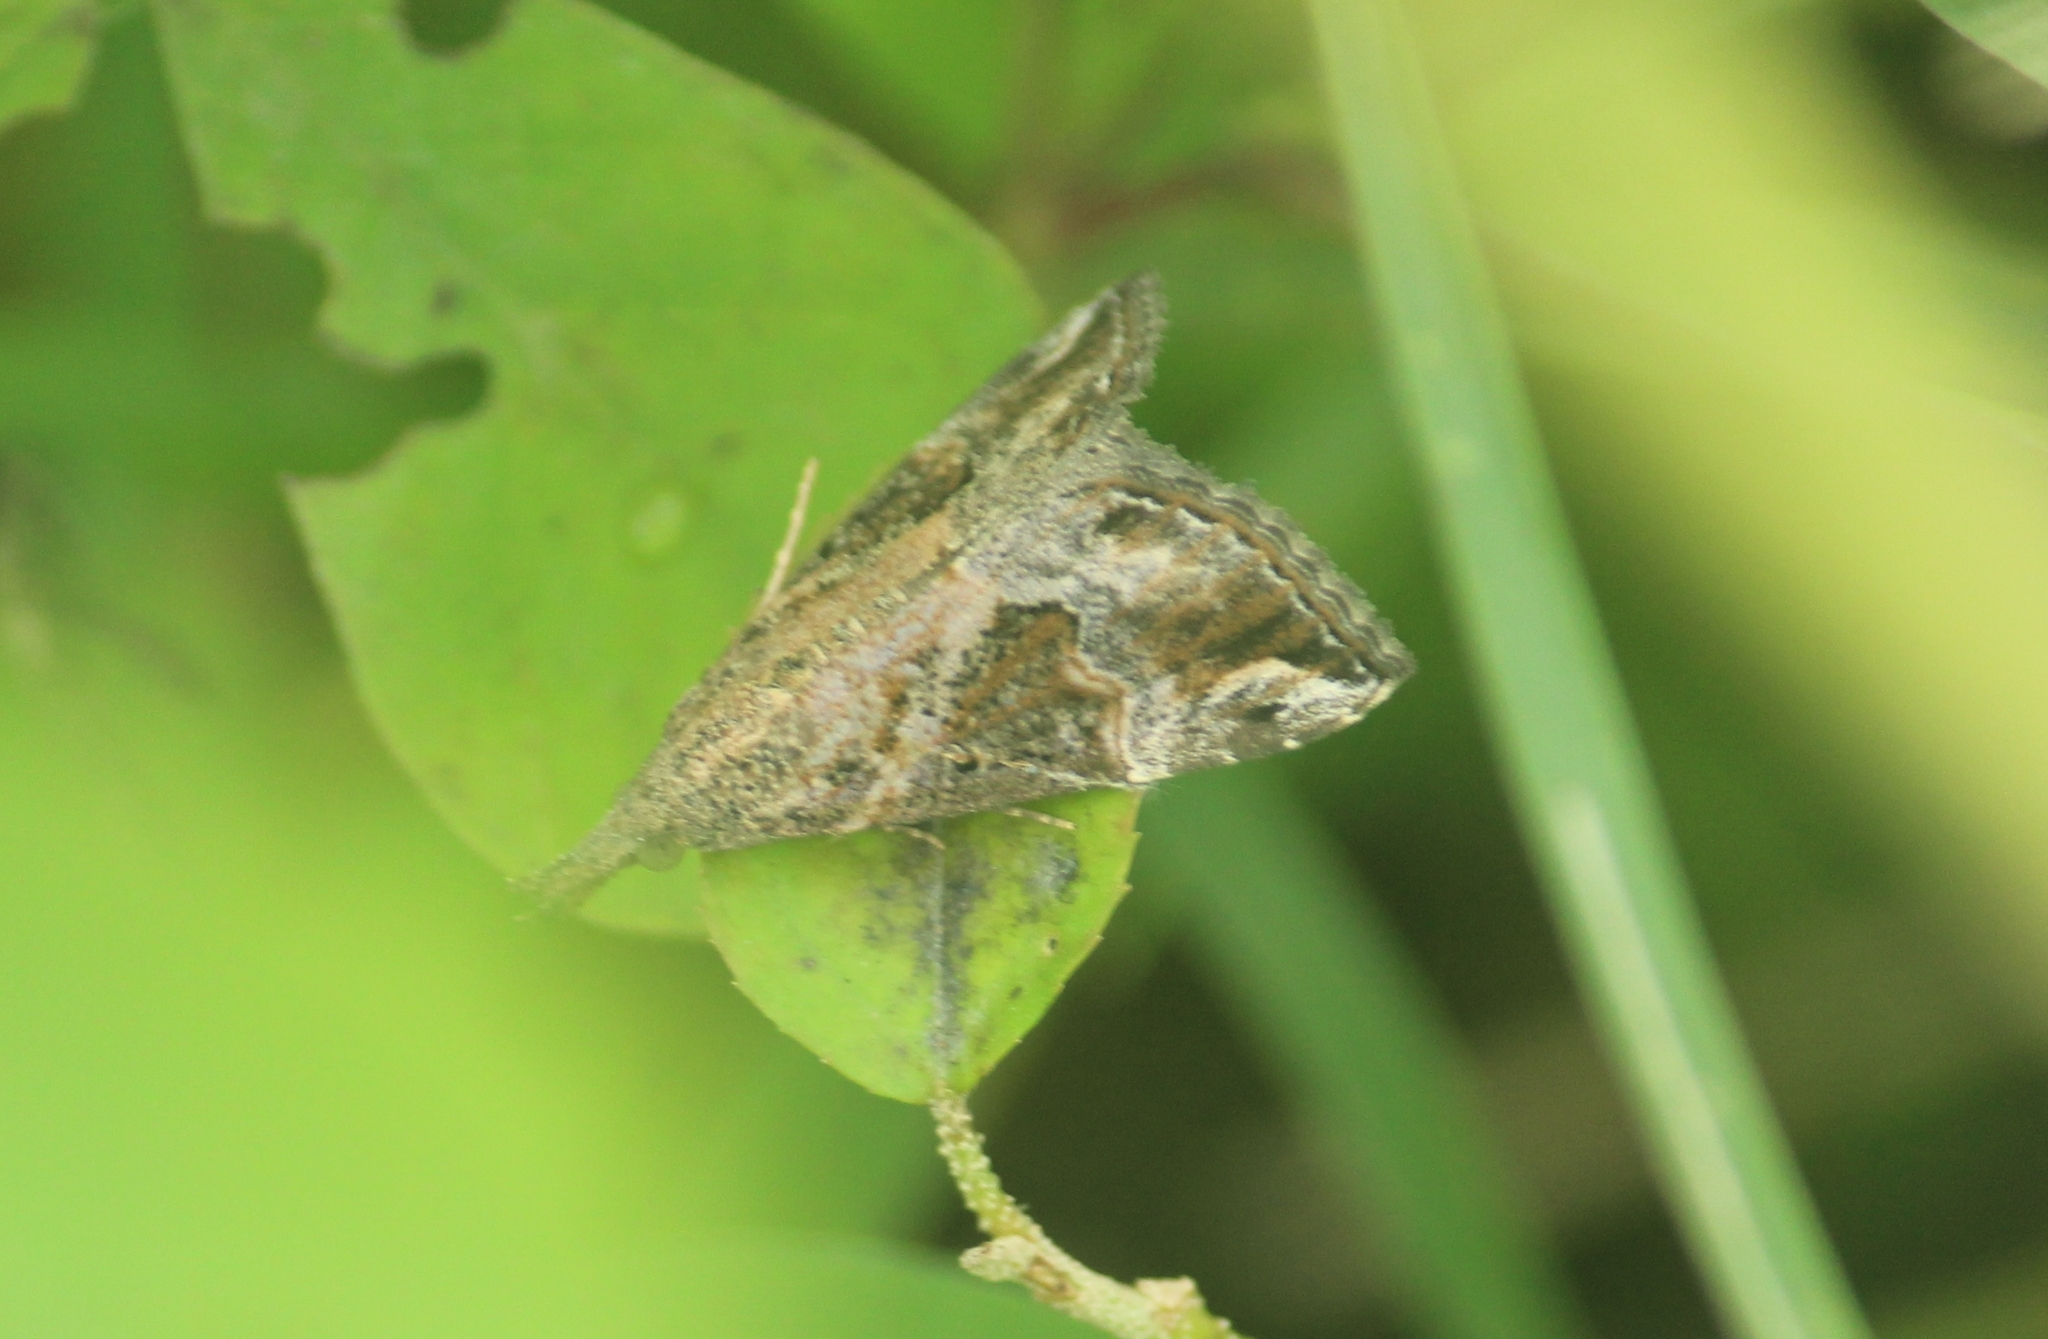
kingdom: Animalia
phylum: Arthropoda
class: Insecta
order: Lepidoptera
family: Erebidae
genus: Hypena
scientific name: Hypena commixtalis
